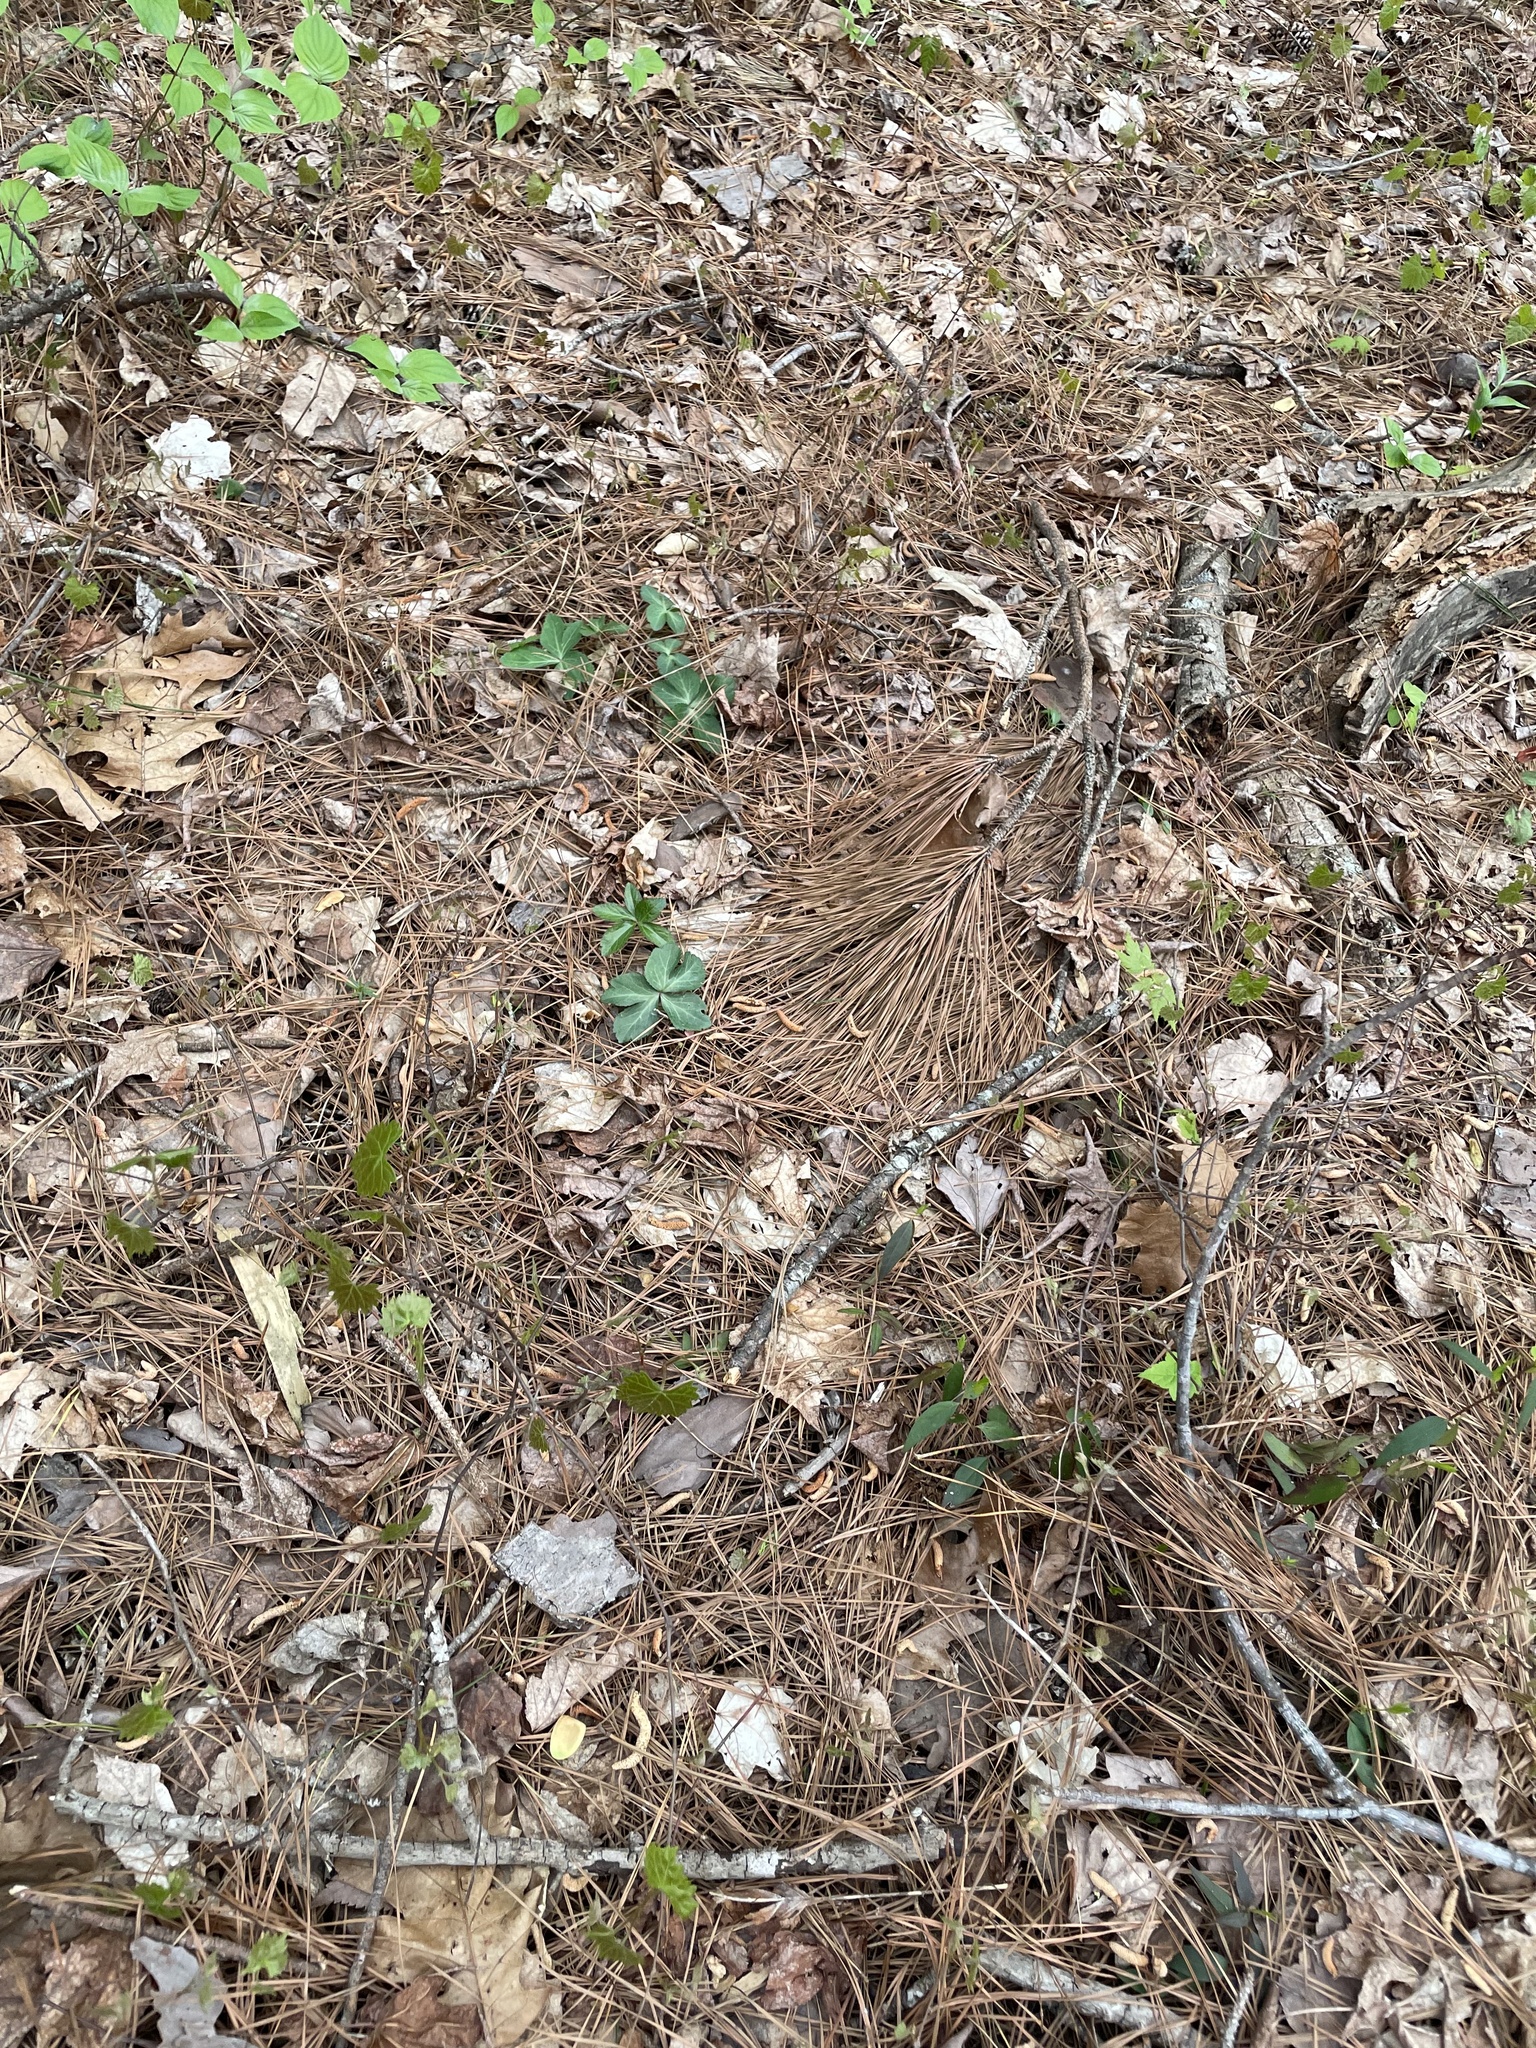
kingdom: Plantae
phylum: Tracheophyta
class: Magnoliopsida
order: Apiales
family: Apiaceae
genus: Sanicula
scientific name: Sanicula smallii
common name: Small's black snakeroot
